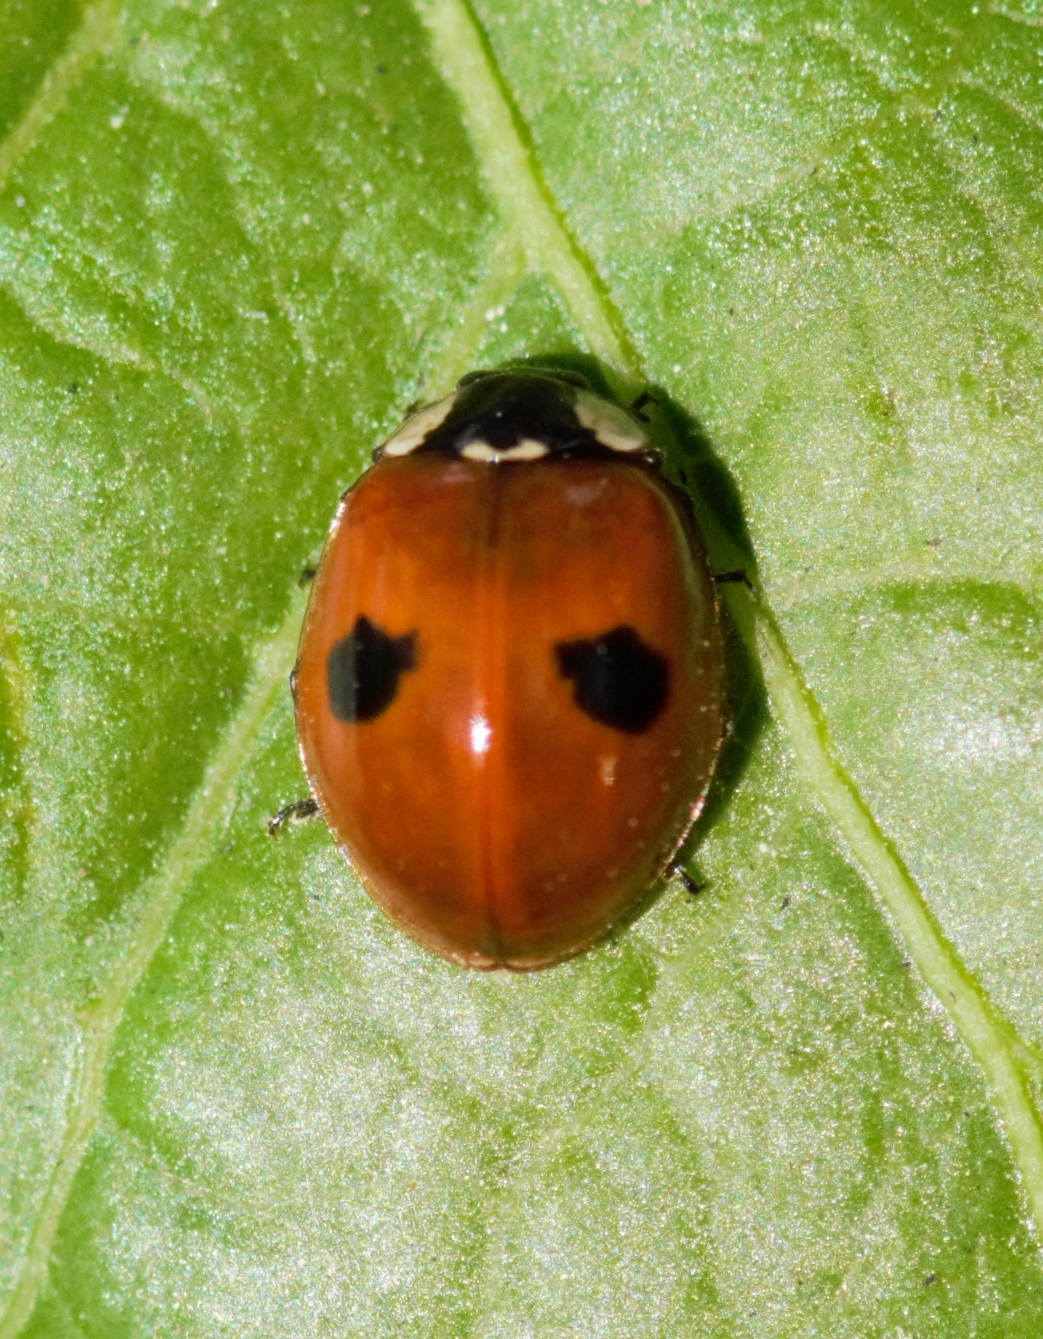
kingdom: Animalia
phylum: Arthropoda
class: Insecta
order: Coleoptera
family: Coccinellidae
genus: Adalia
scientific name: Adalia bipunctata
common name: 2-spot ladybird
